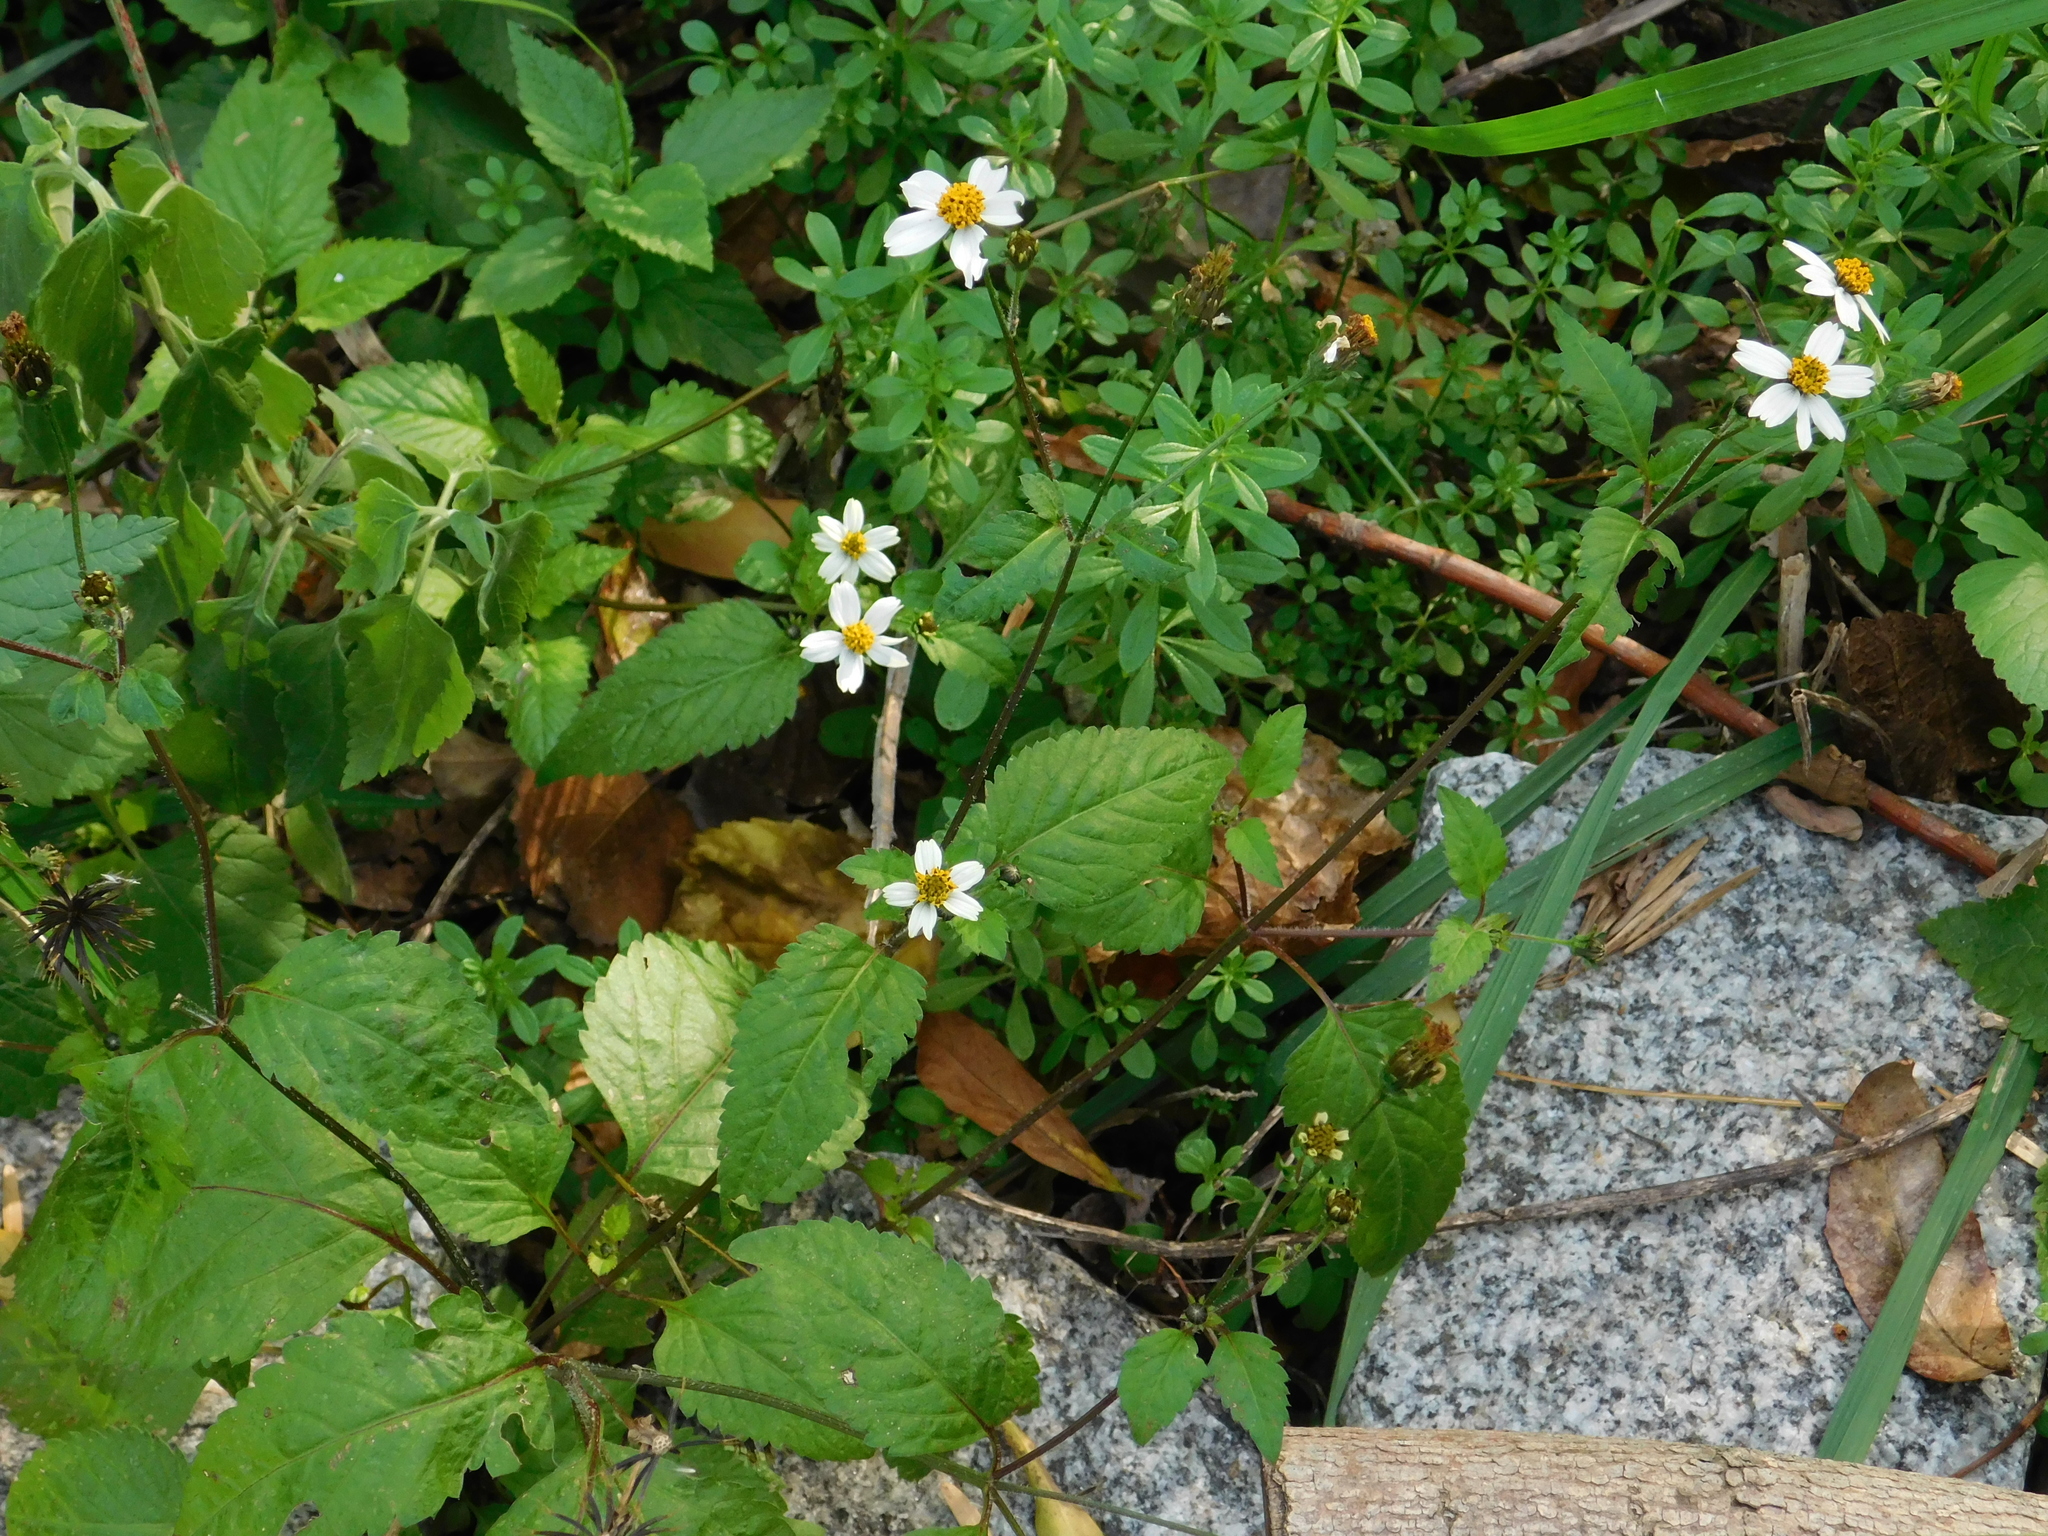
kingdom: Plantae
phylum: Tracheophyta
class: Magnoliopsida
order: Asterales
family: Asteraceae
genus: Bidens
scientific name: Bidens pilosa
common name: Black-jack
